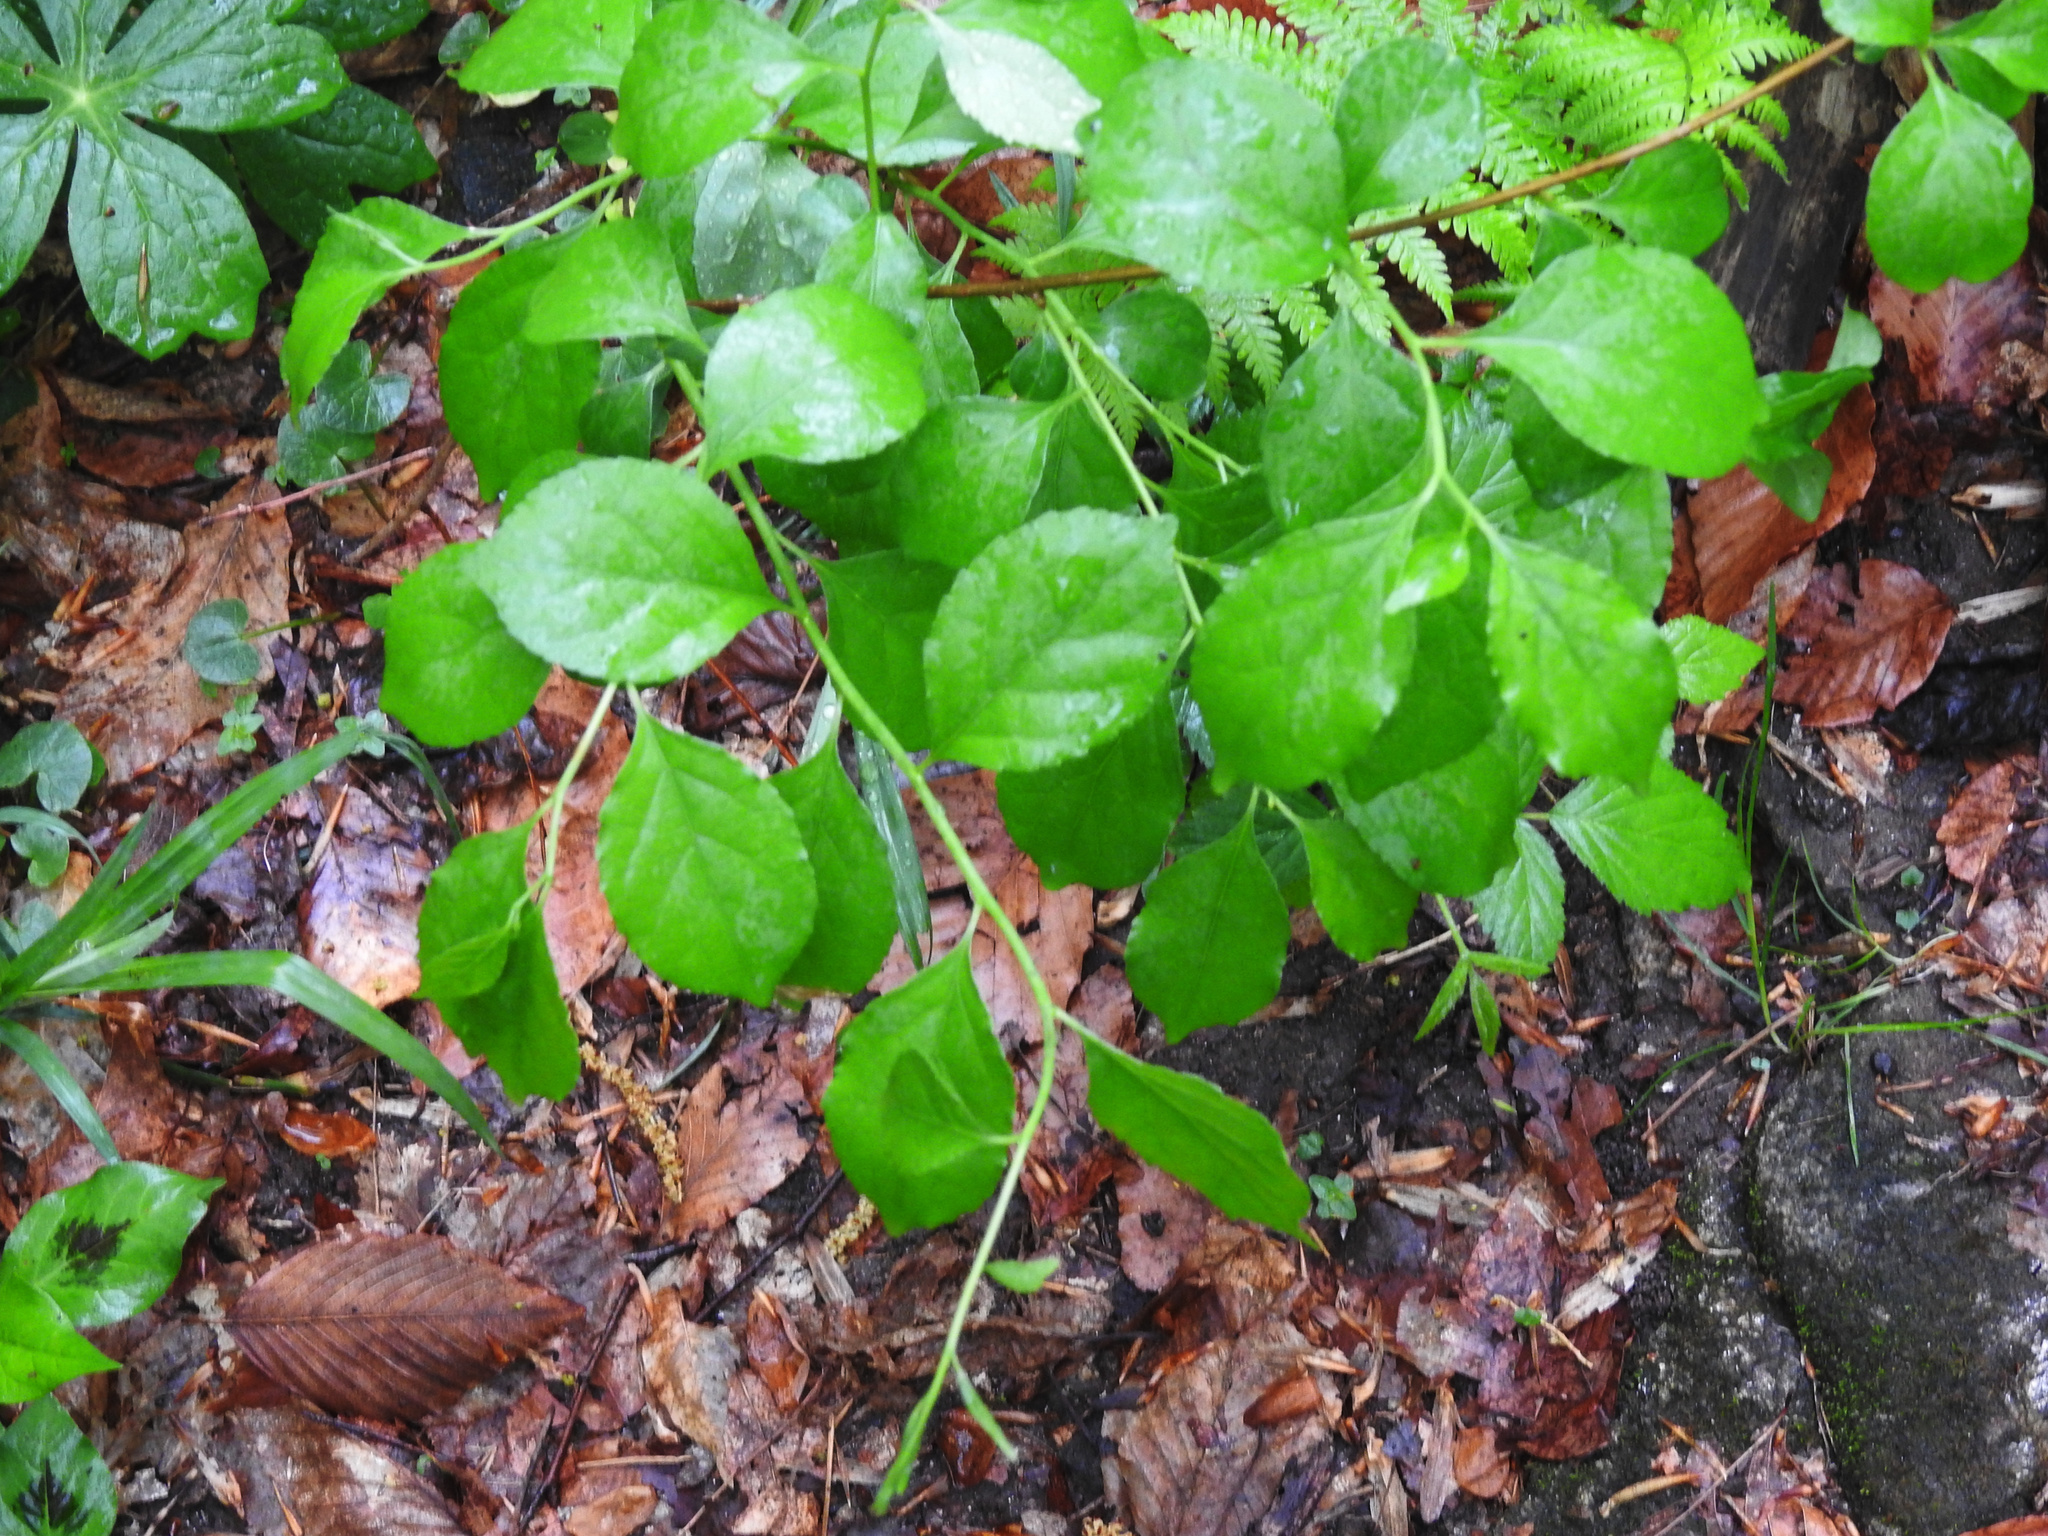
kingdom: Plantae
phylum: Tracheophyta
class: Magnoliopsida
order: Celastrales
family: Celastraceae
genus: Celastrus
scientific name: Celastrus orbiculatus
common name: Oriental bittersweet
